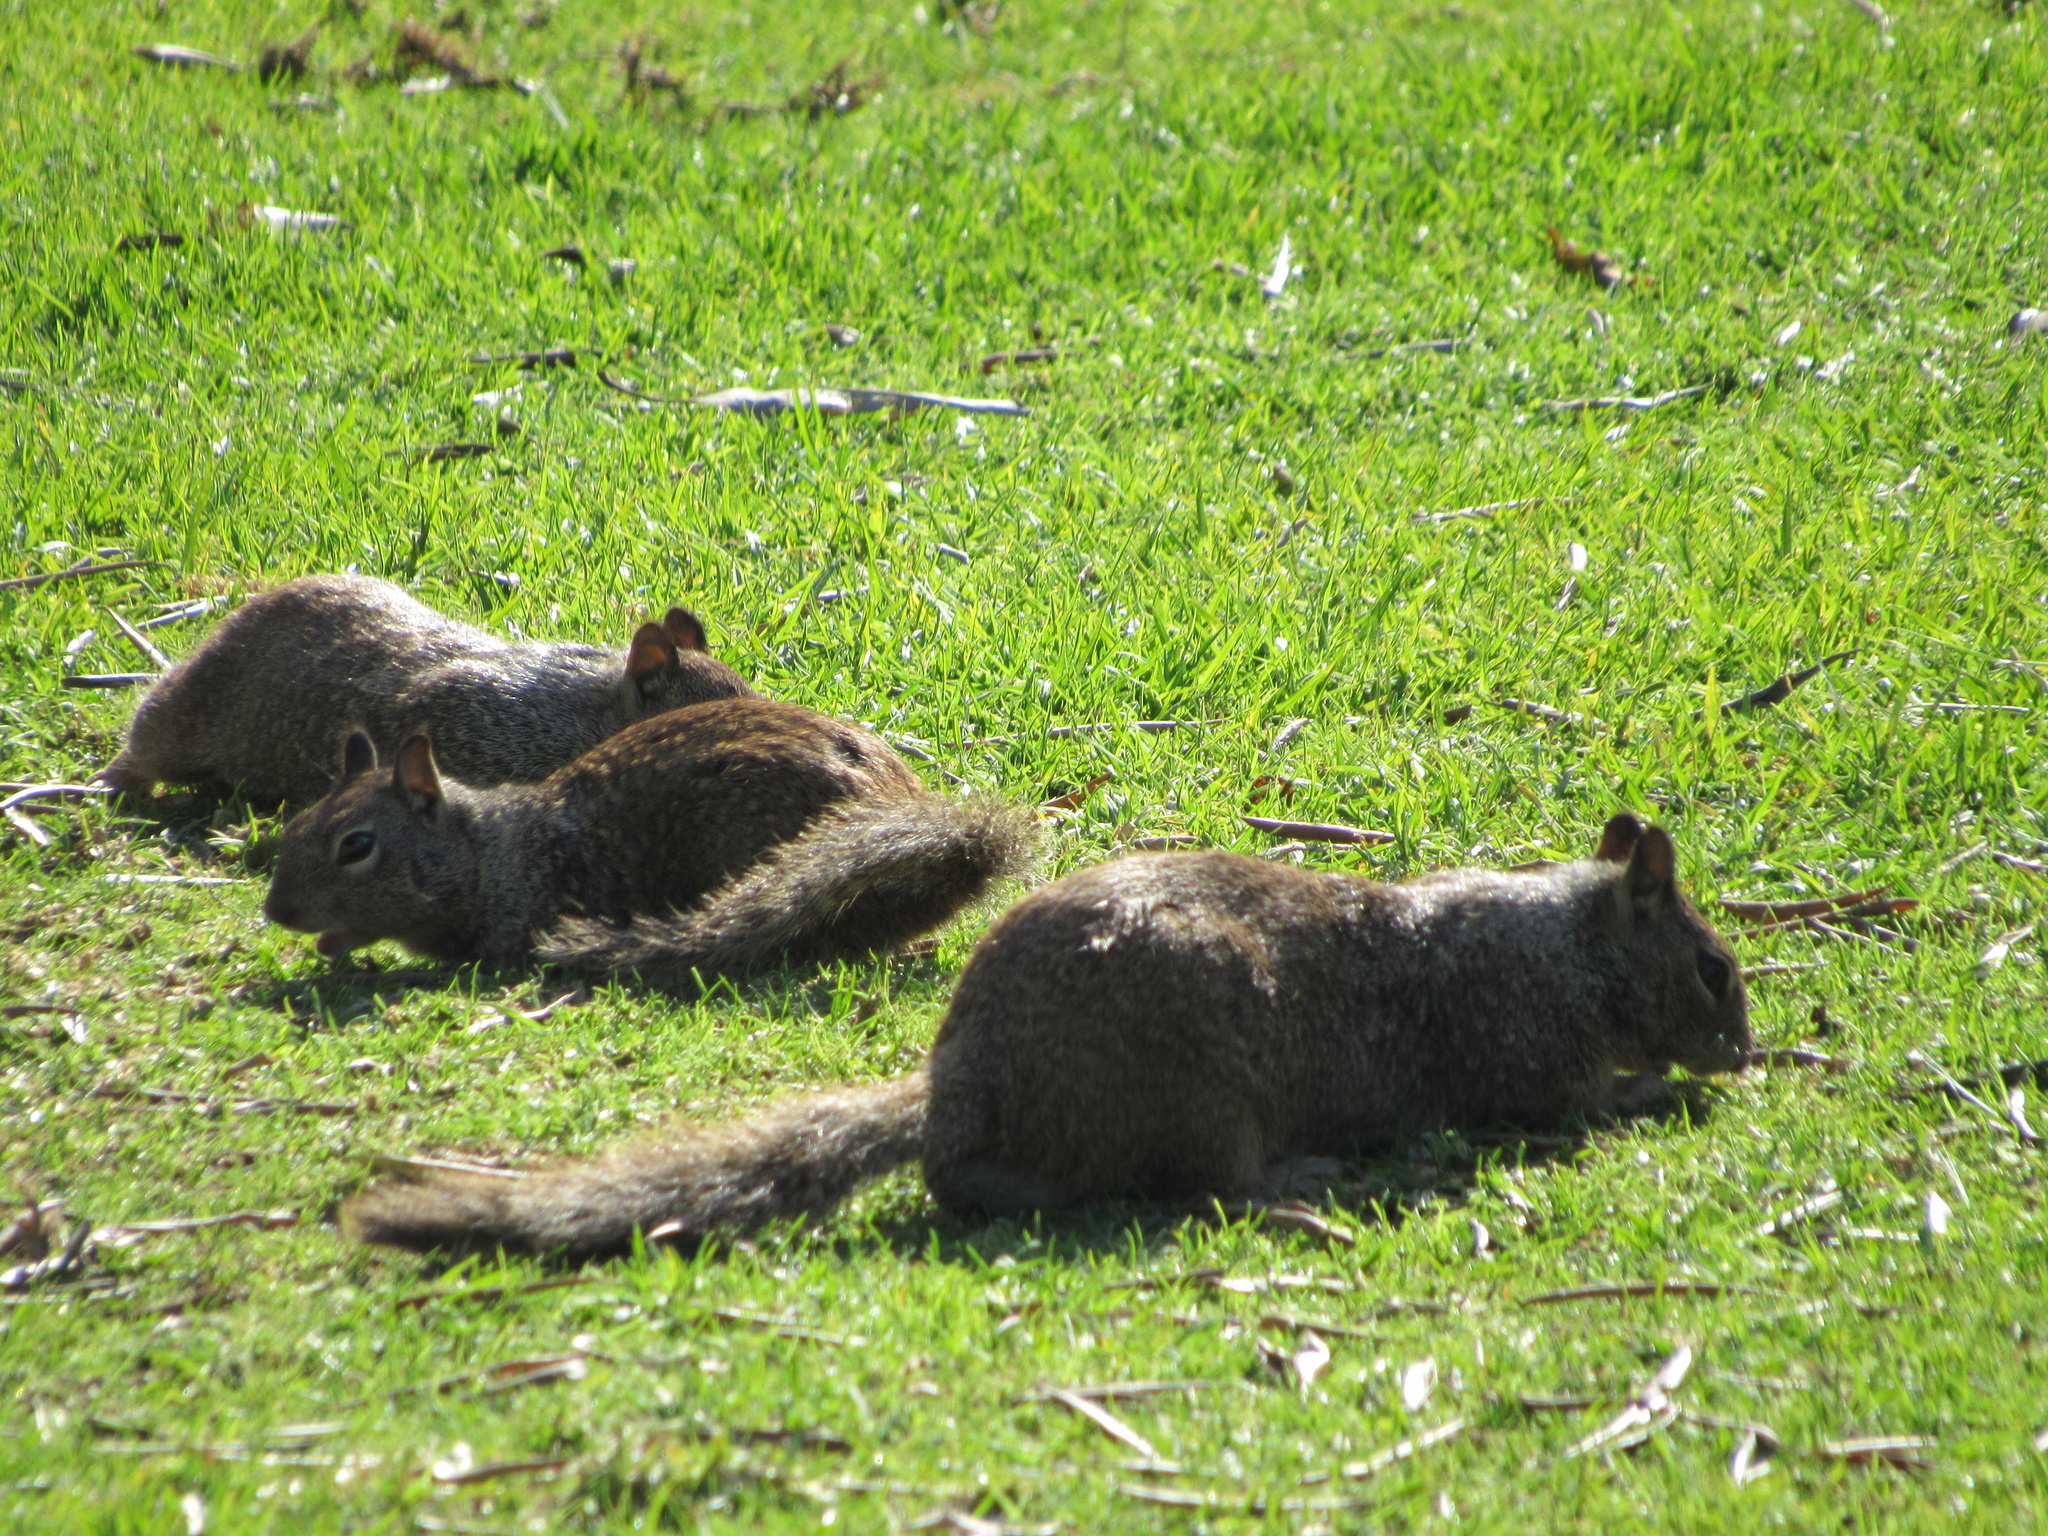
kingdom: Animalia
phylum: Chordata
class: Mammalia
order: Rodentia
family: Sciuridae
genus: Otospermophilus
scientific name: Otospermophilus beecheyi
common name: California ground squirrel
